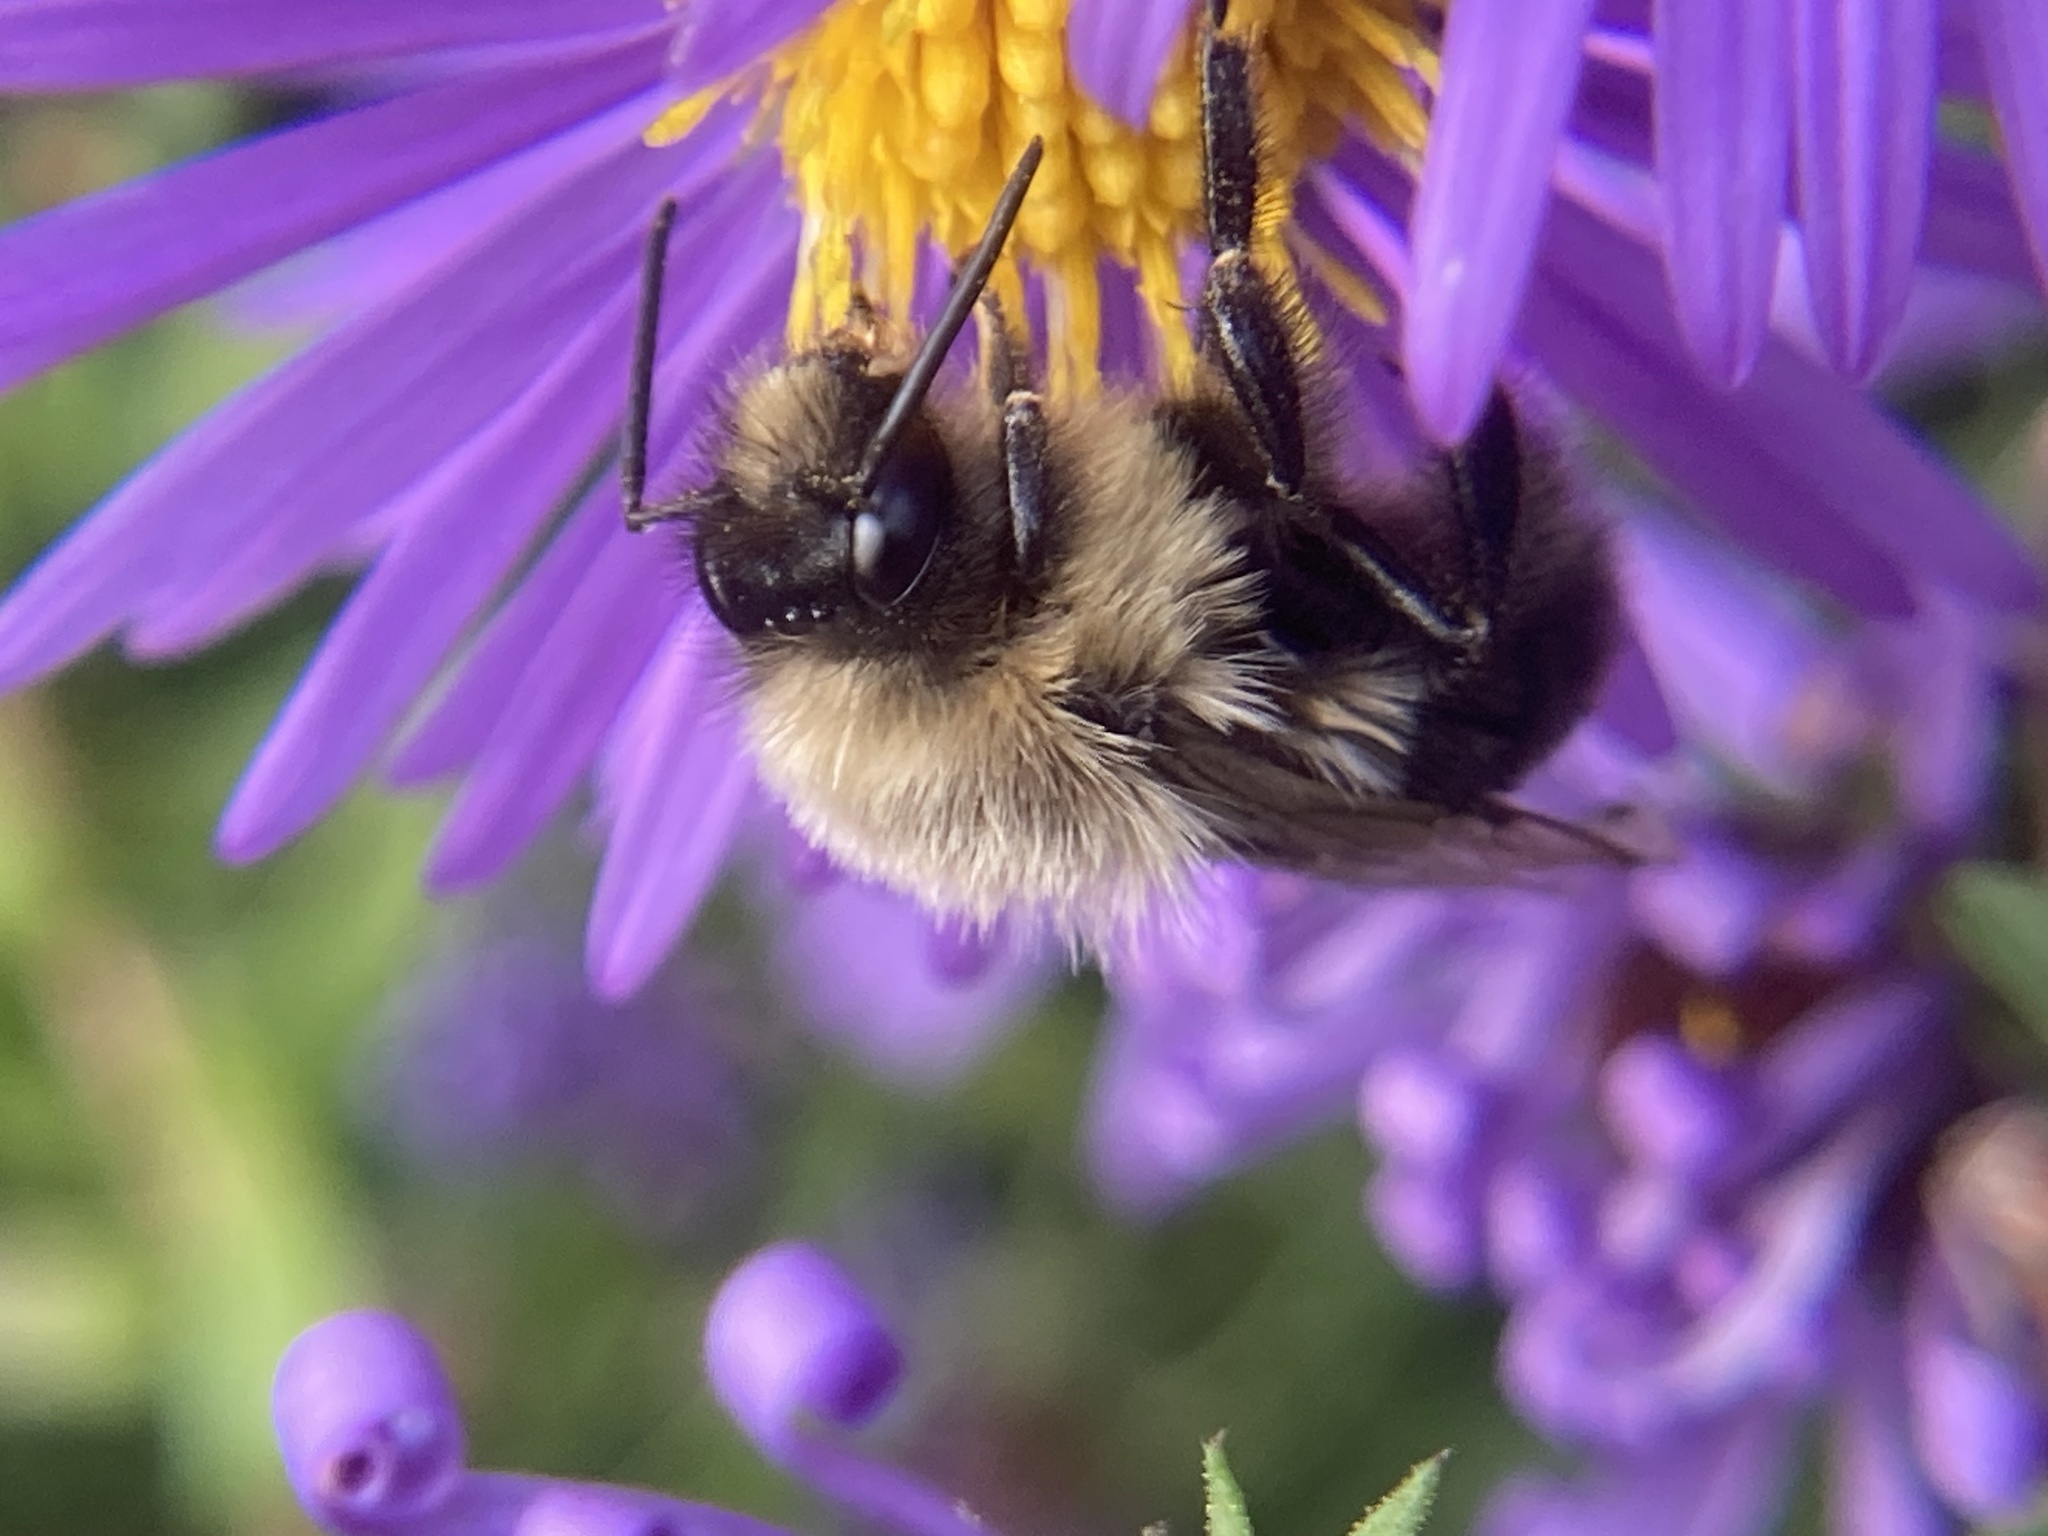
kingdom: Animalia
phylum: Arthropoda
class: Insecta
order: Hymenoptera
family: Apidae
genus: Bombus
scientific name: Bombus impatiens
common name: Common eastern bumble bee
